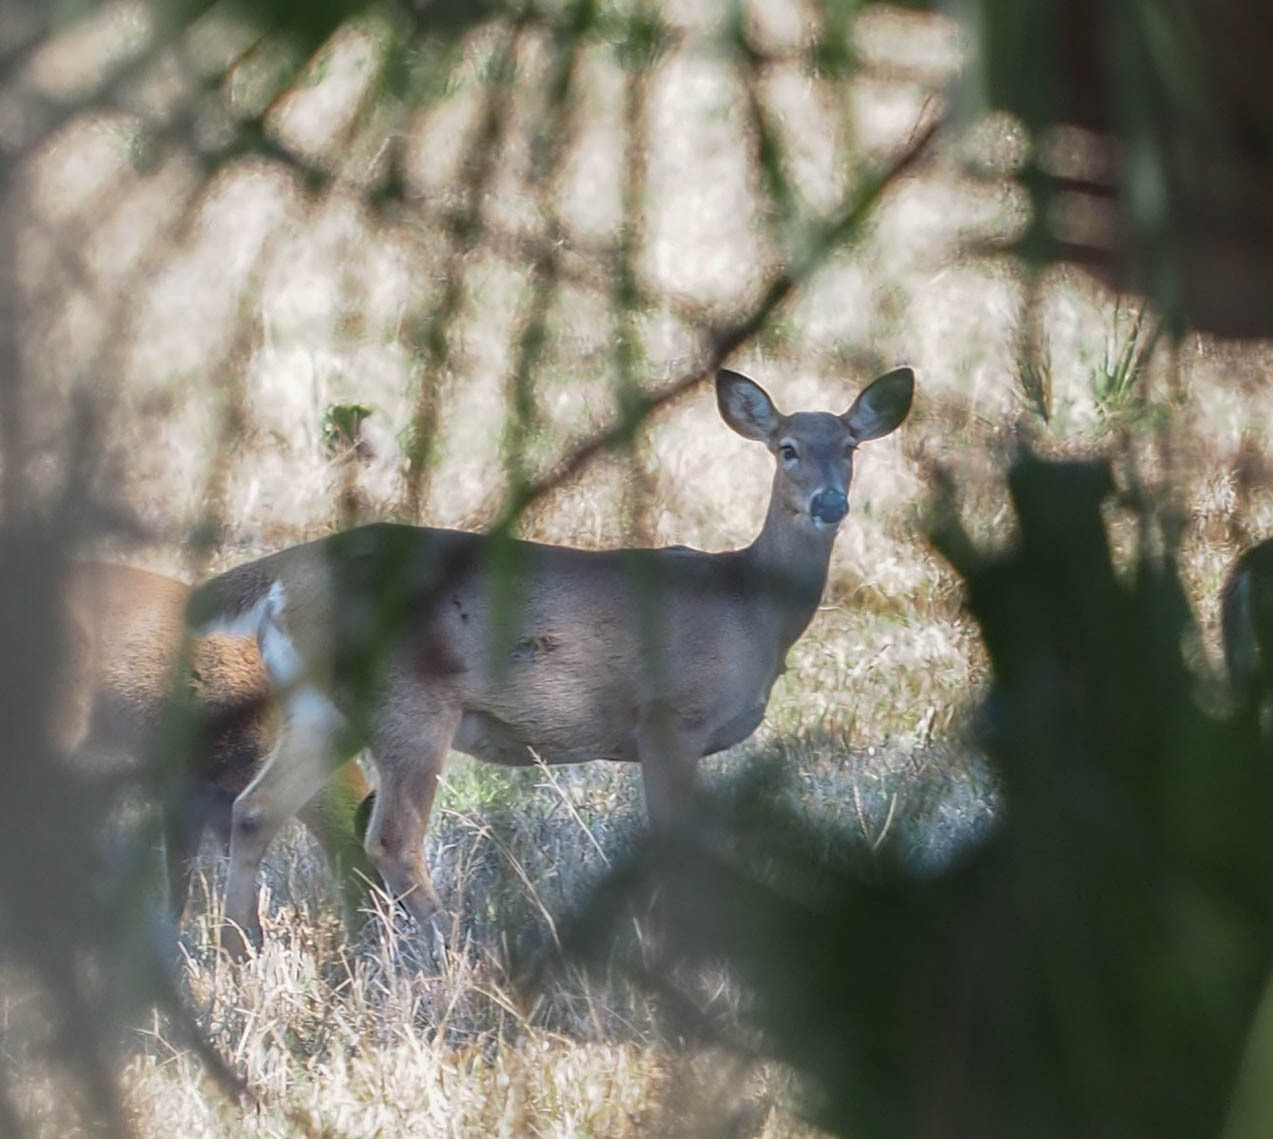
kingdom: Animalia
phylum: Chordata
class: Mammalia
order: Artiodactyla
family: Cervidae
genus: Odocoileus
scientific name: Odocoileus virginianus
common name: White-tailed deer
